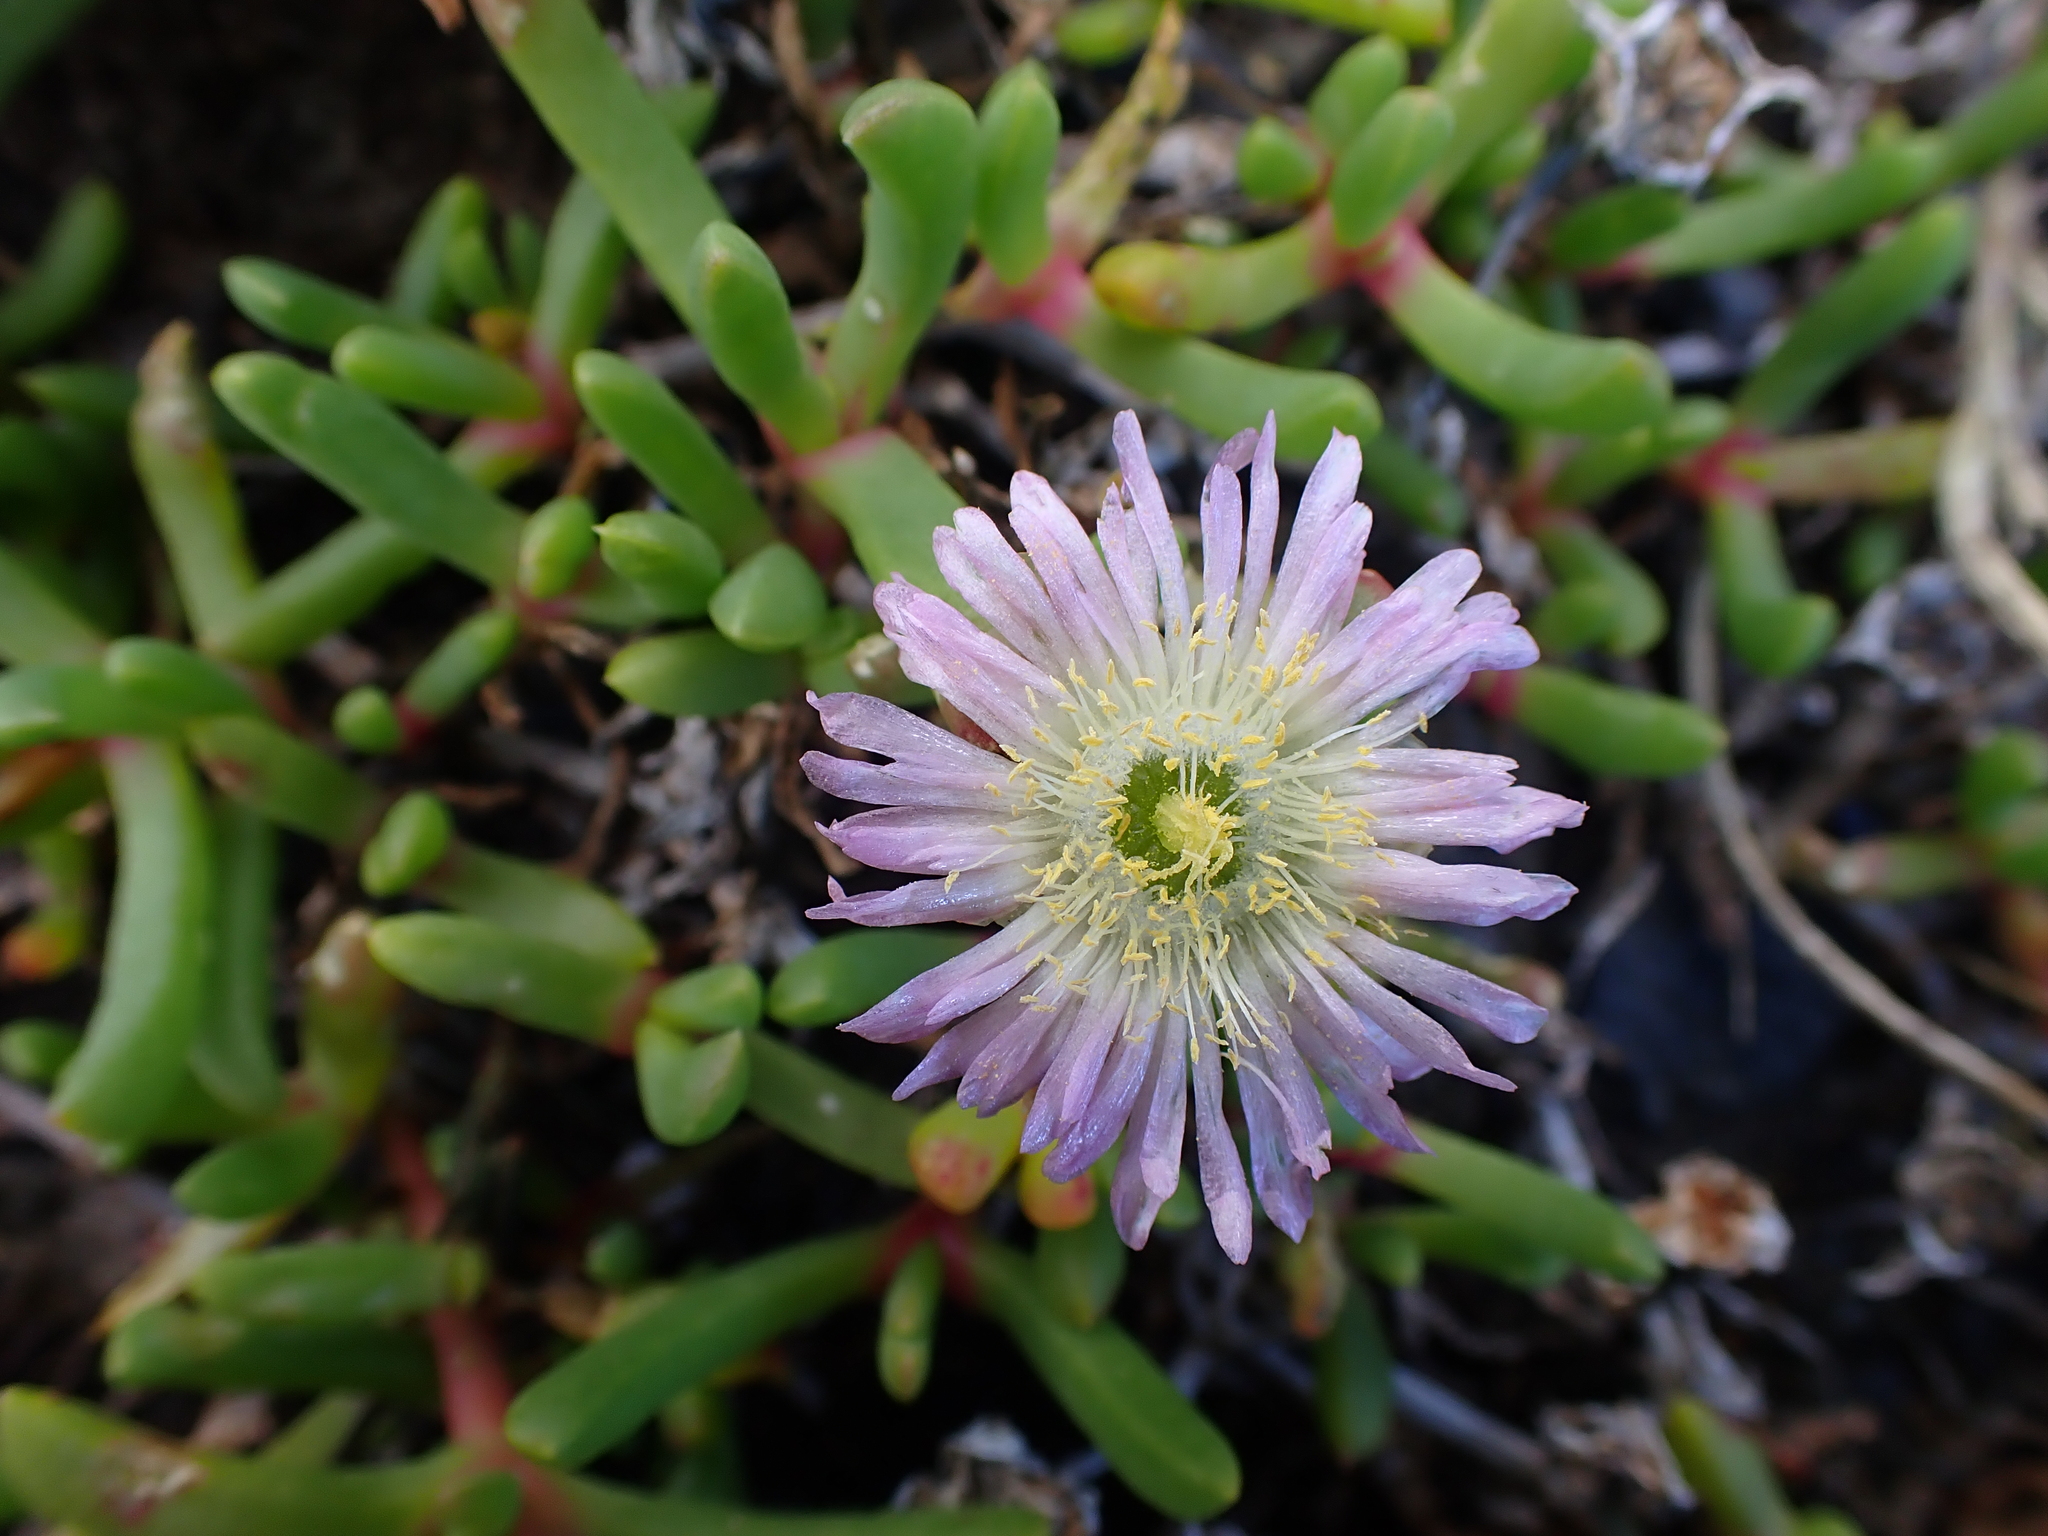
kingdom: Plantae
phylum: Tracheophyta
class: Magnoliopsida
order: Caryophyllales
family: Aizoaceae
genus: Disphyma
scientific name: Disphyma australe
